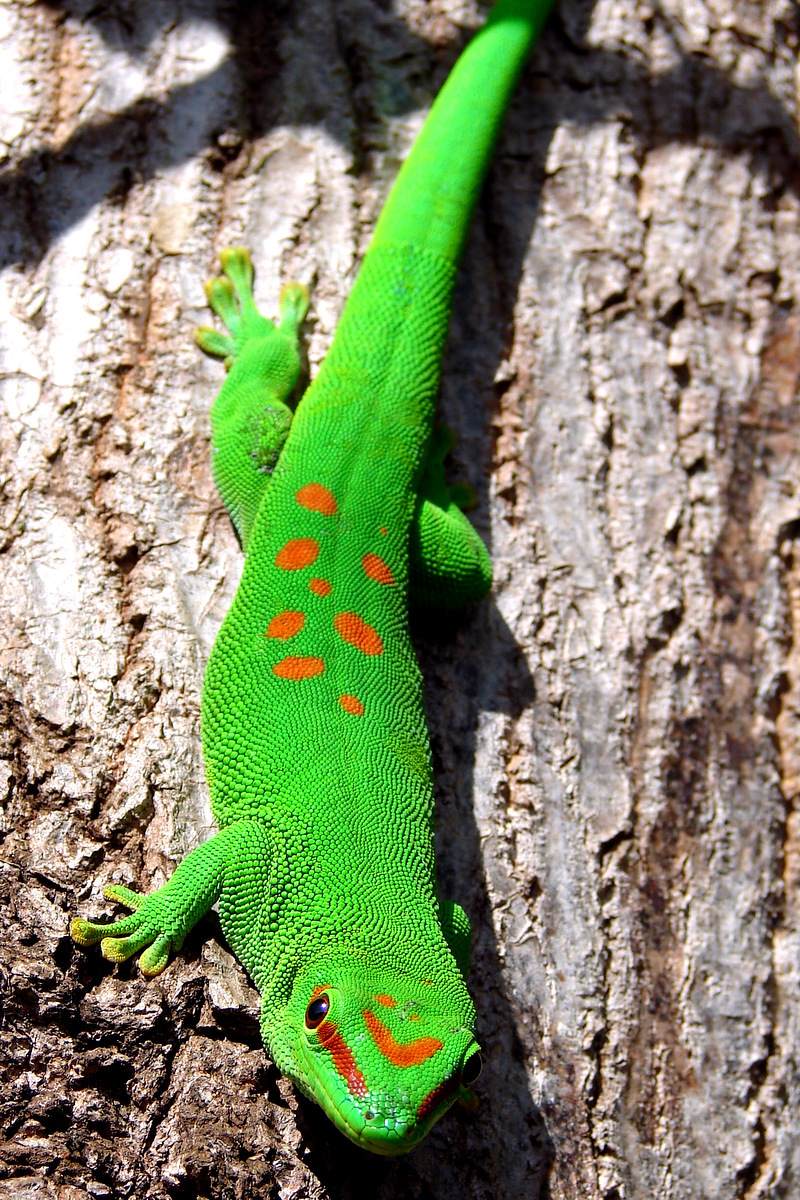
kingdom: Animalia
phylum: Chordata
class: Squamata
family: Gekkonidae
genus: Phelsuma
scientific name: Phelsuma grandis
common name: Madagascar giant day gecko
